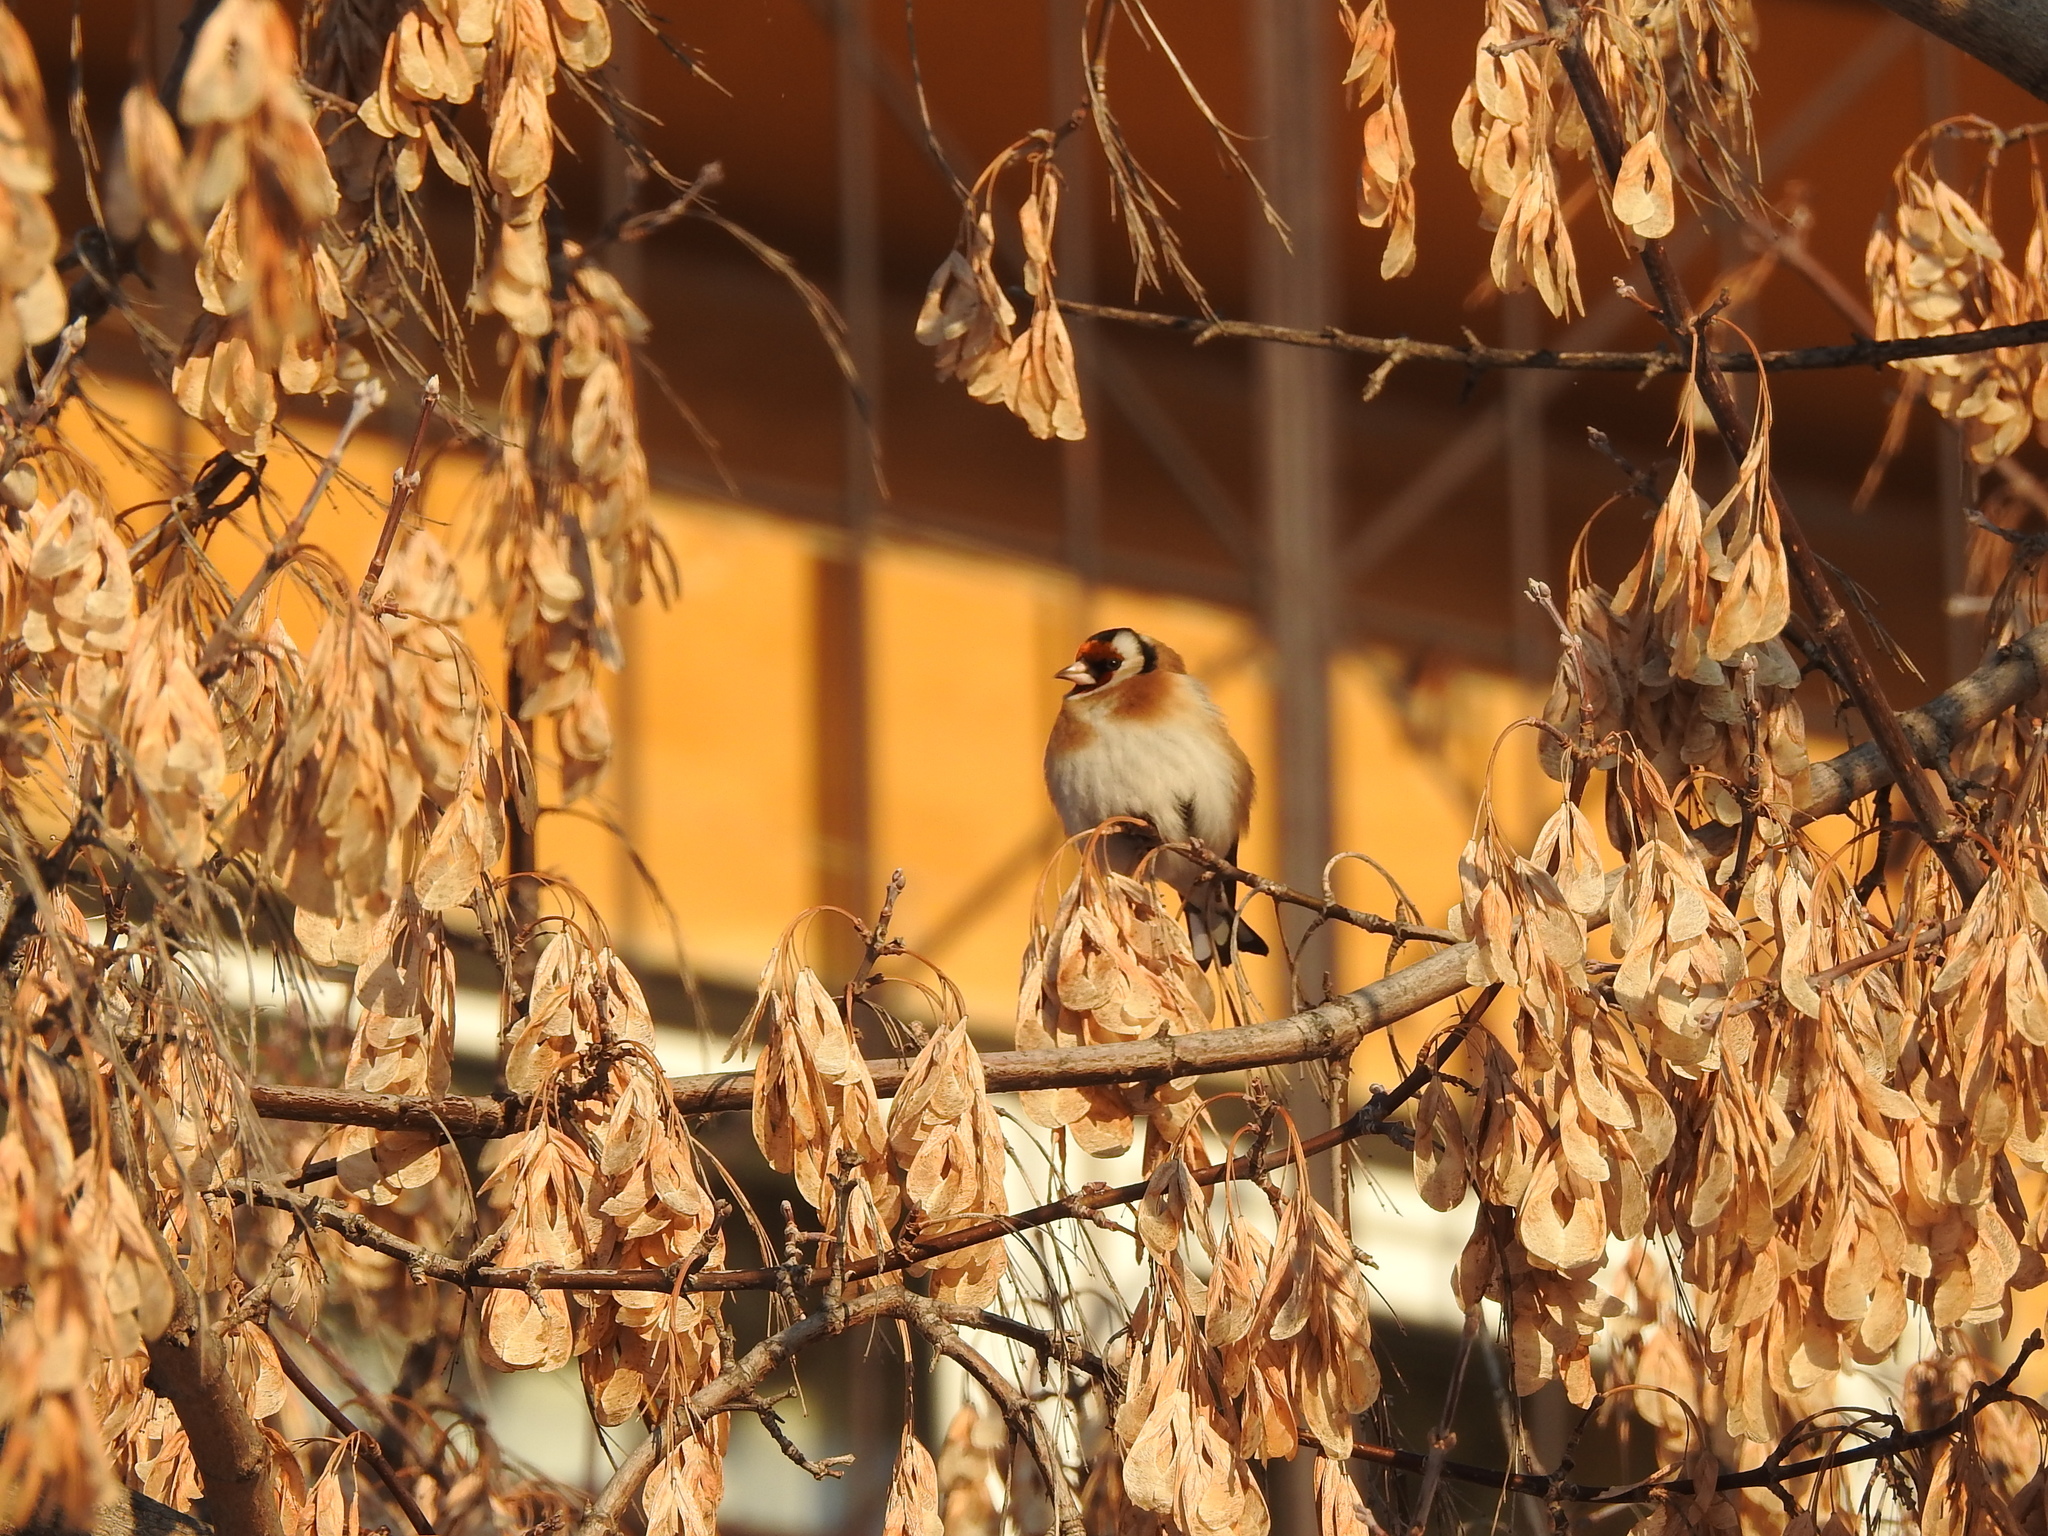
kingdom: Animalia
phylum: Chordata
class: Aves
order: Passeriformes
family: Fringillidae
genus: Carduelis
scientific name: Carduelis carduelis
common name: European goldfinch
